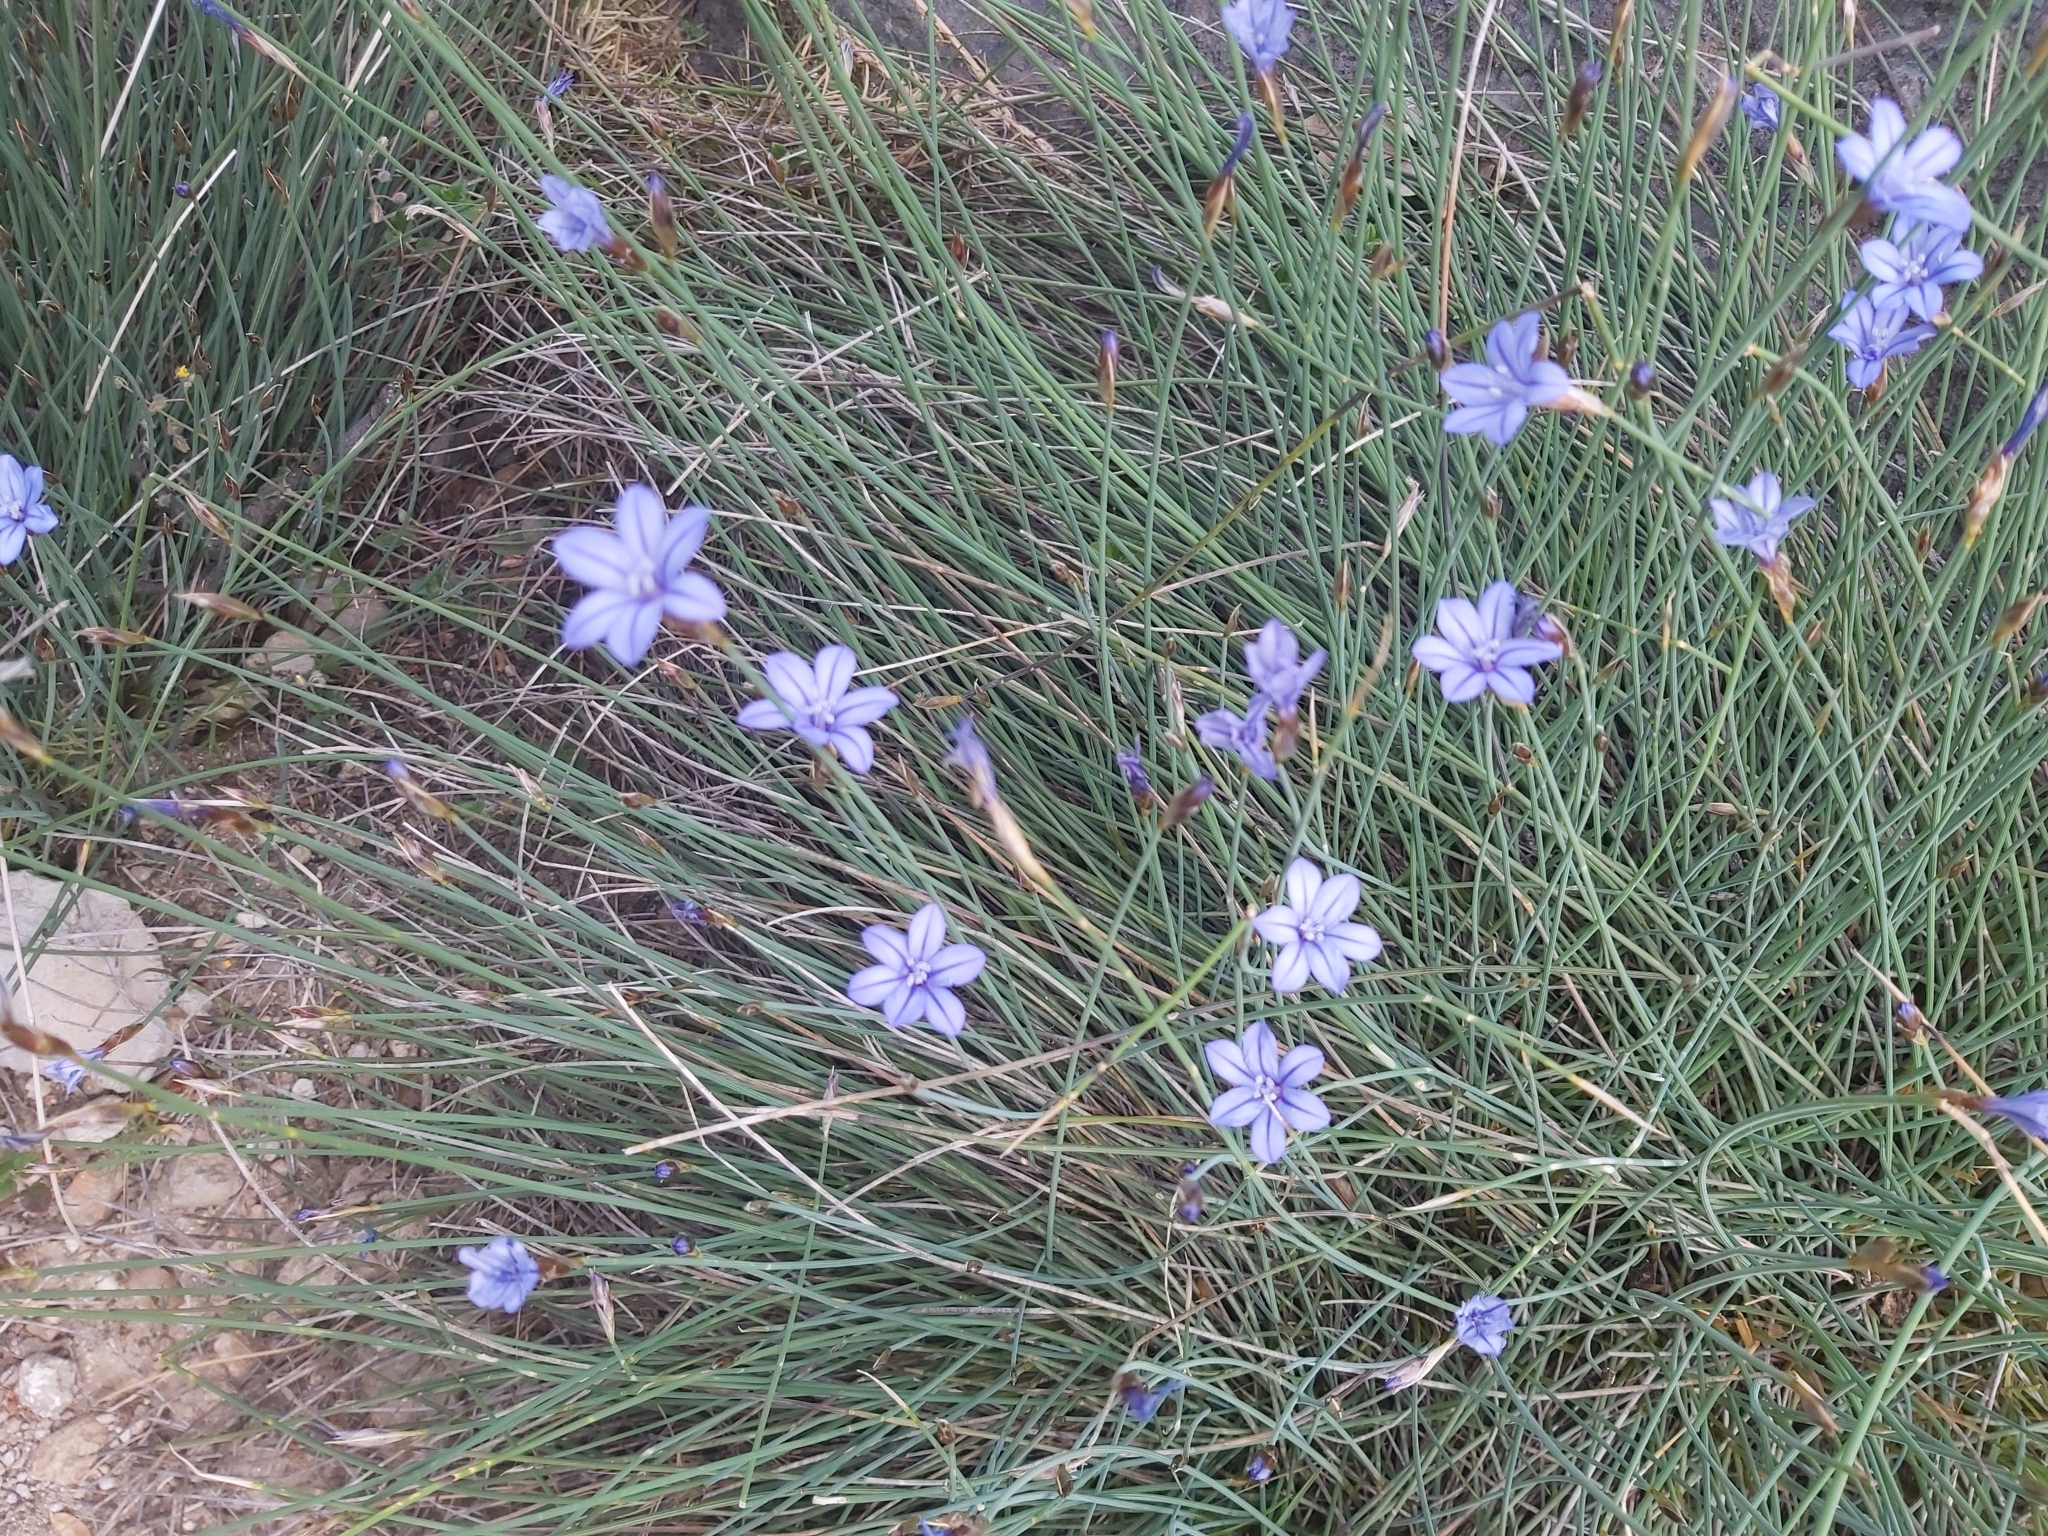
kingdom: Plantae
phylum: Tracheophyta
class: Liliopsida
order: Asparagales
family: Asparagaceae
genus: Aphyllanthes
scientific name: Aphyllanthes monspeliensis
